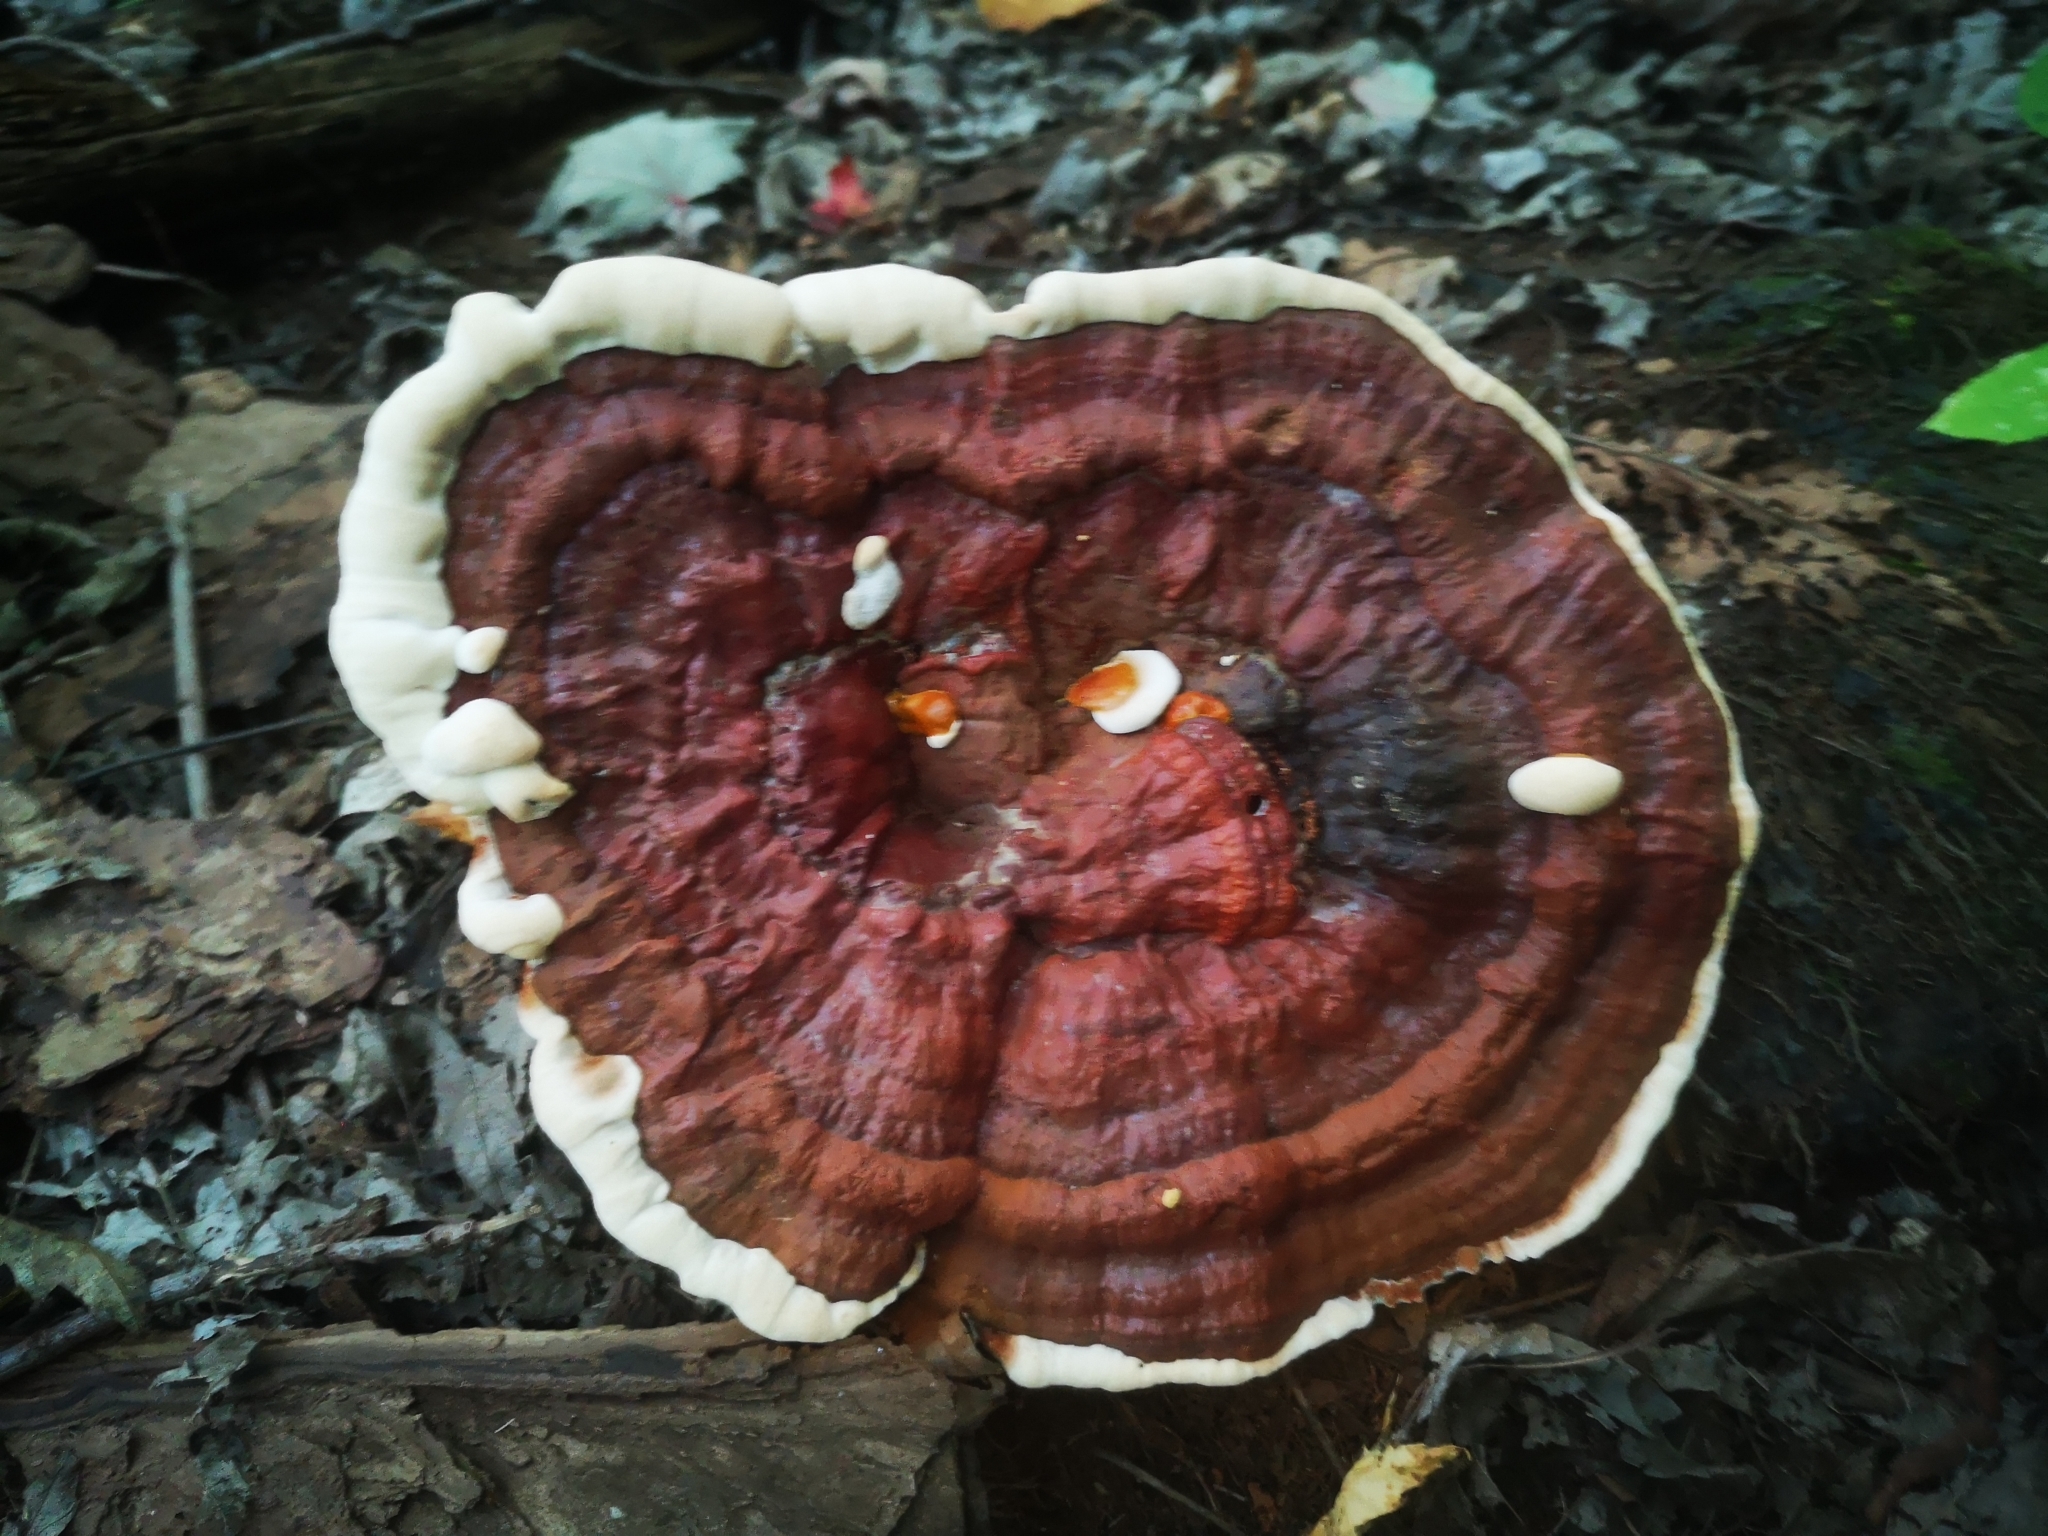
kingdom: Fungi
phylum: Basidiomycota
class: Agaricomycetes
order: Polyporales
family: Polyporaceae
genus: Ganoderma
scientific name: Ganoderma resinaceum
